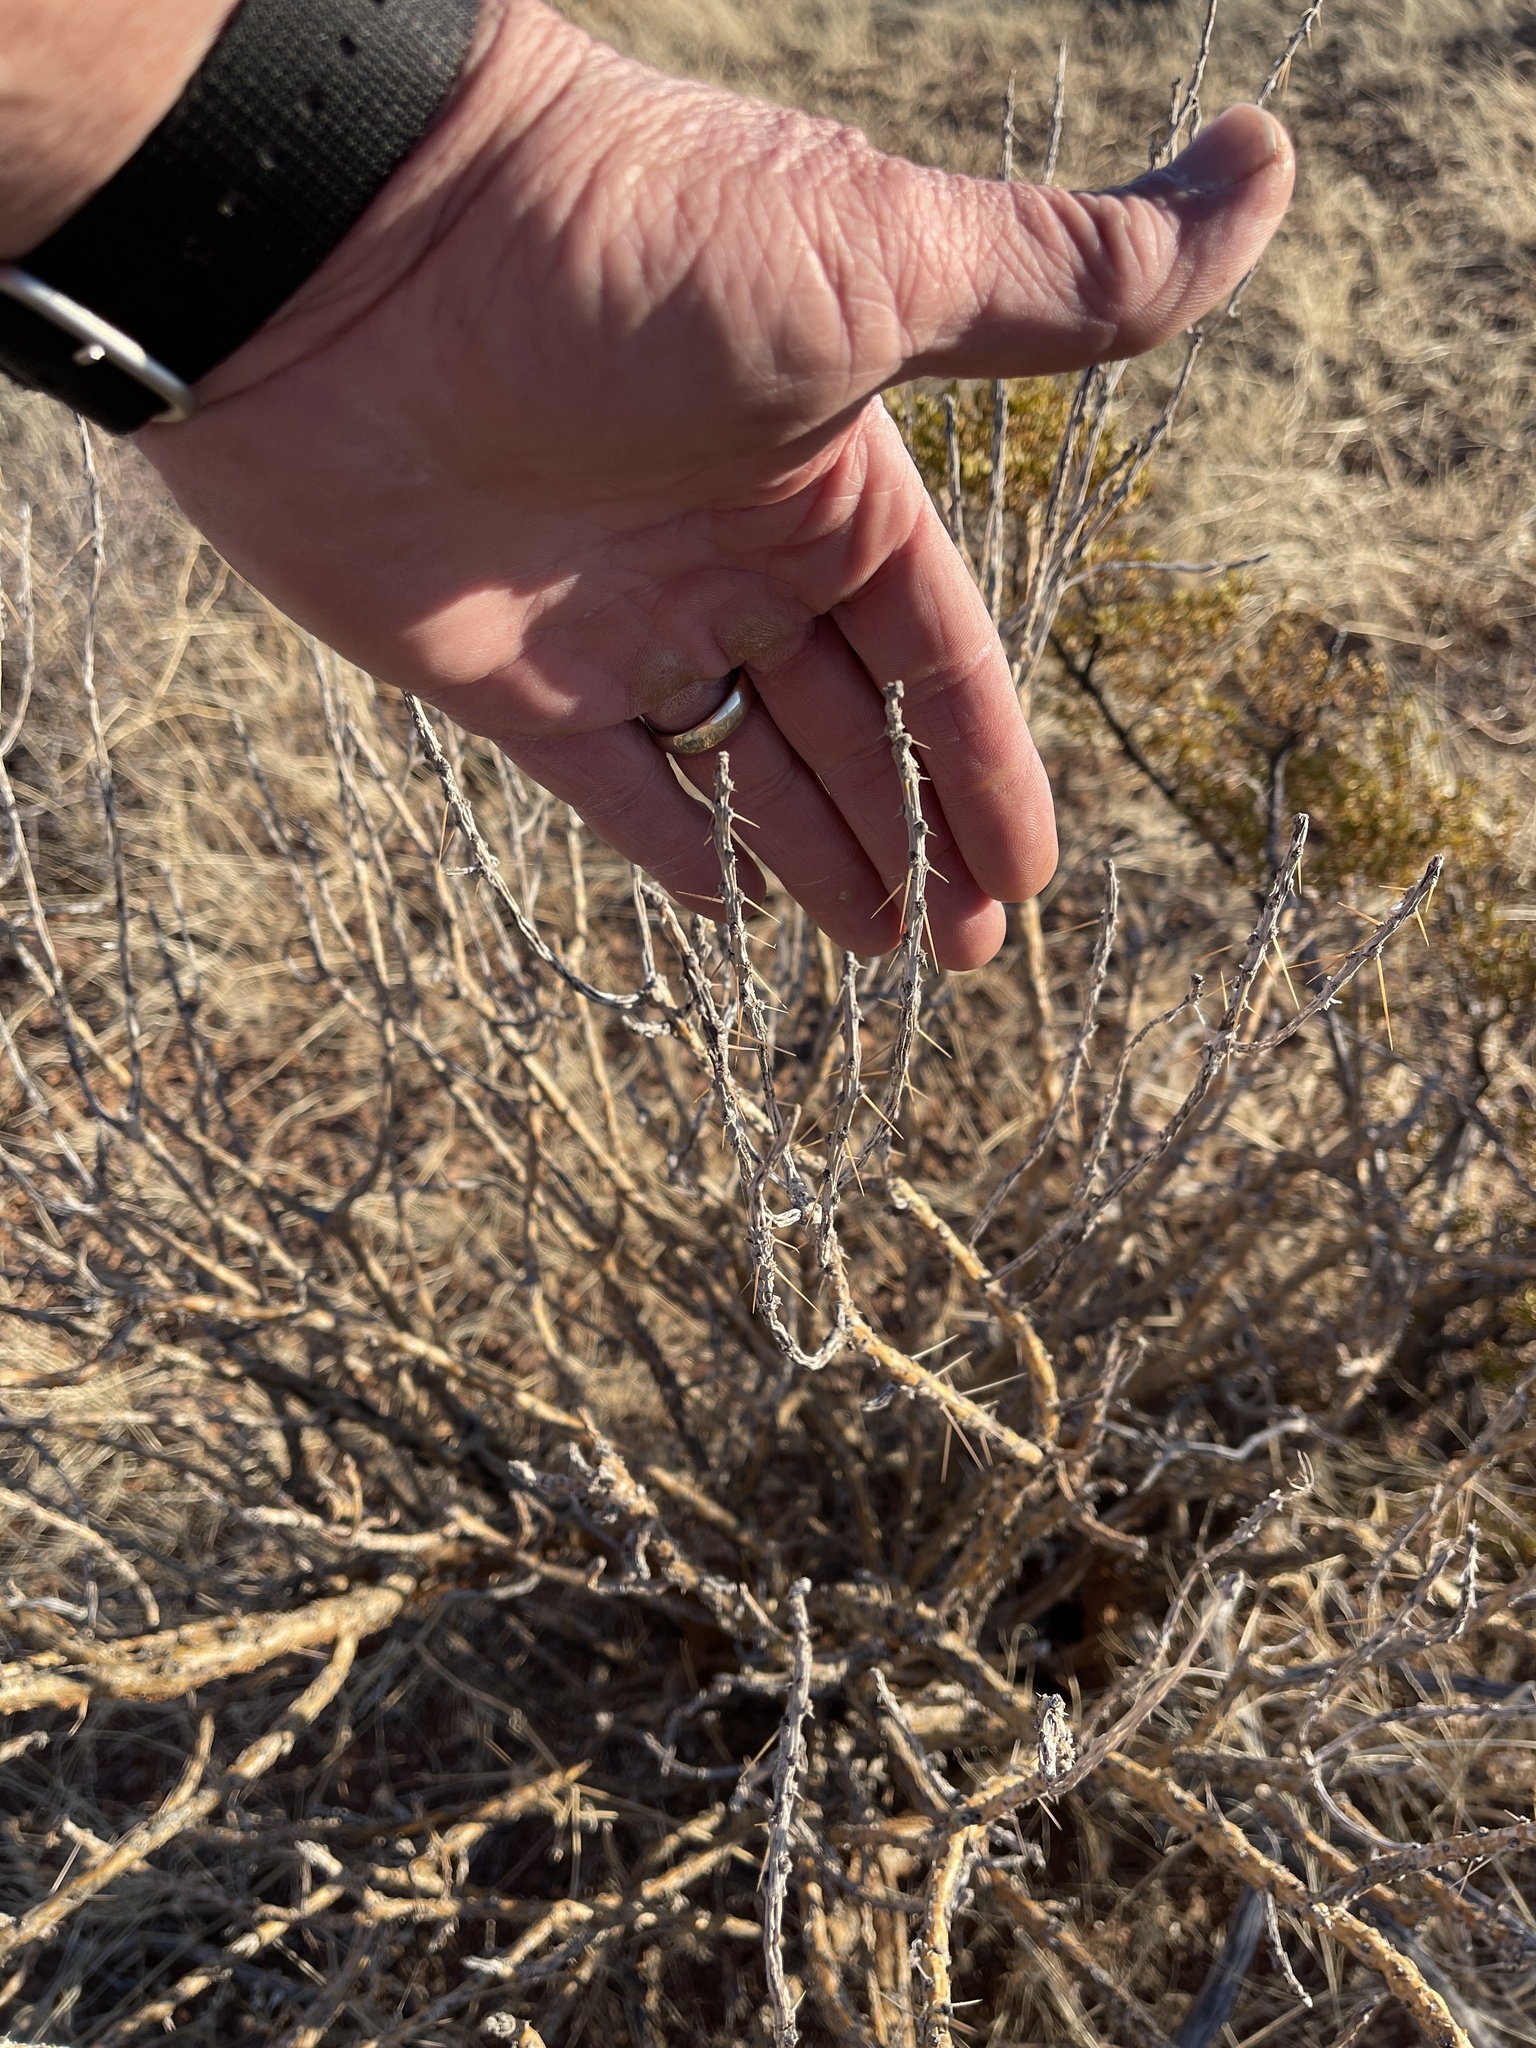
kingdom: Plantae
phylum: Tracheophyta
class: Magnoliopsida
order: Caryophyllales
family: Cactaceae
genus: Cylindropuntia
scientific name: Cylindropuntia leptocaulis
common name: Christmas cactus
